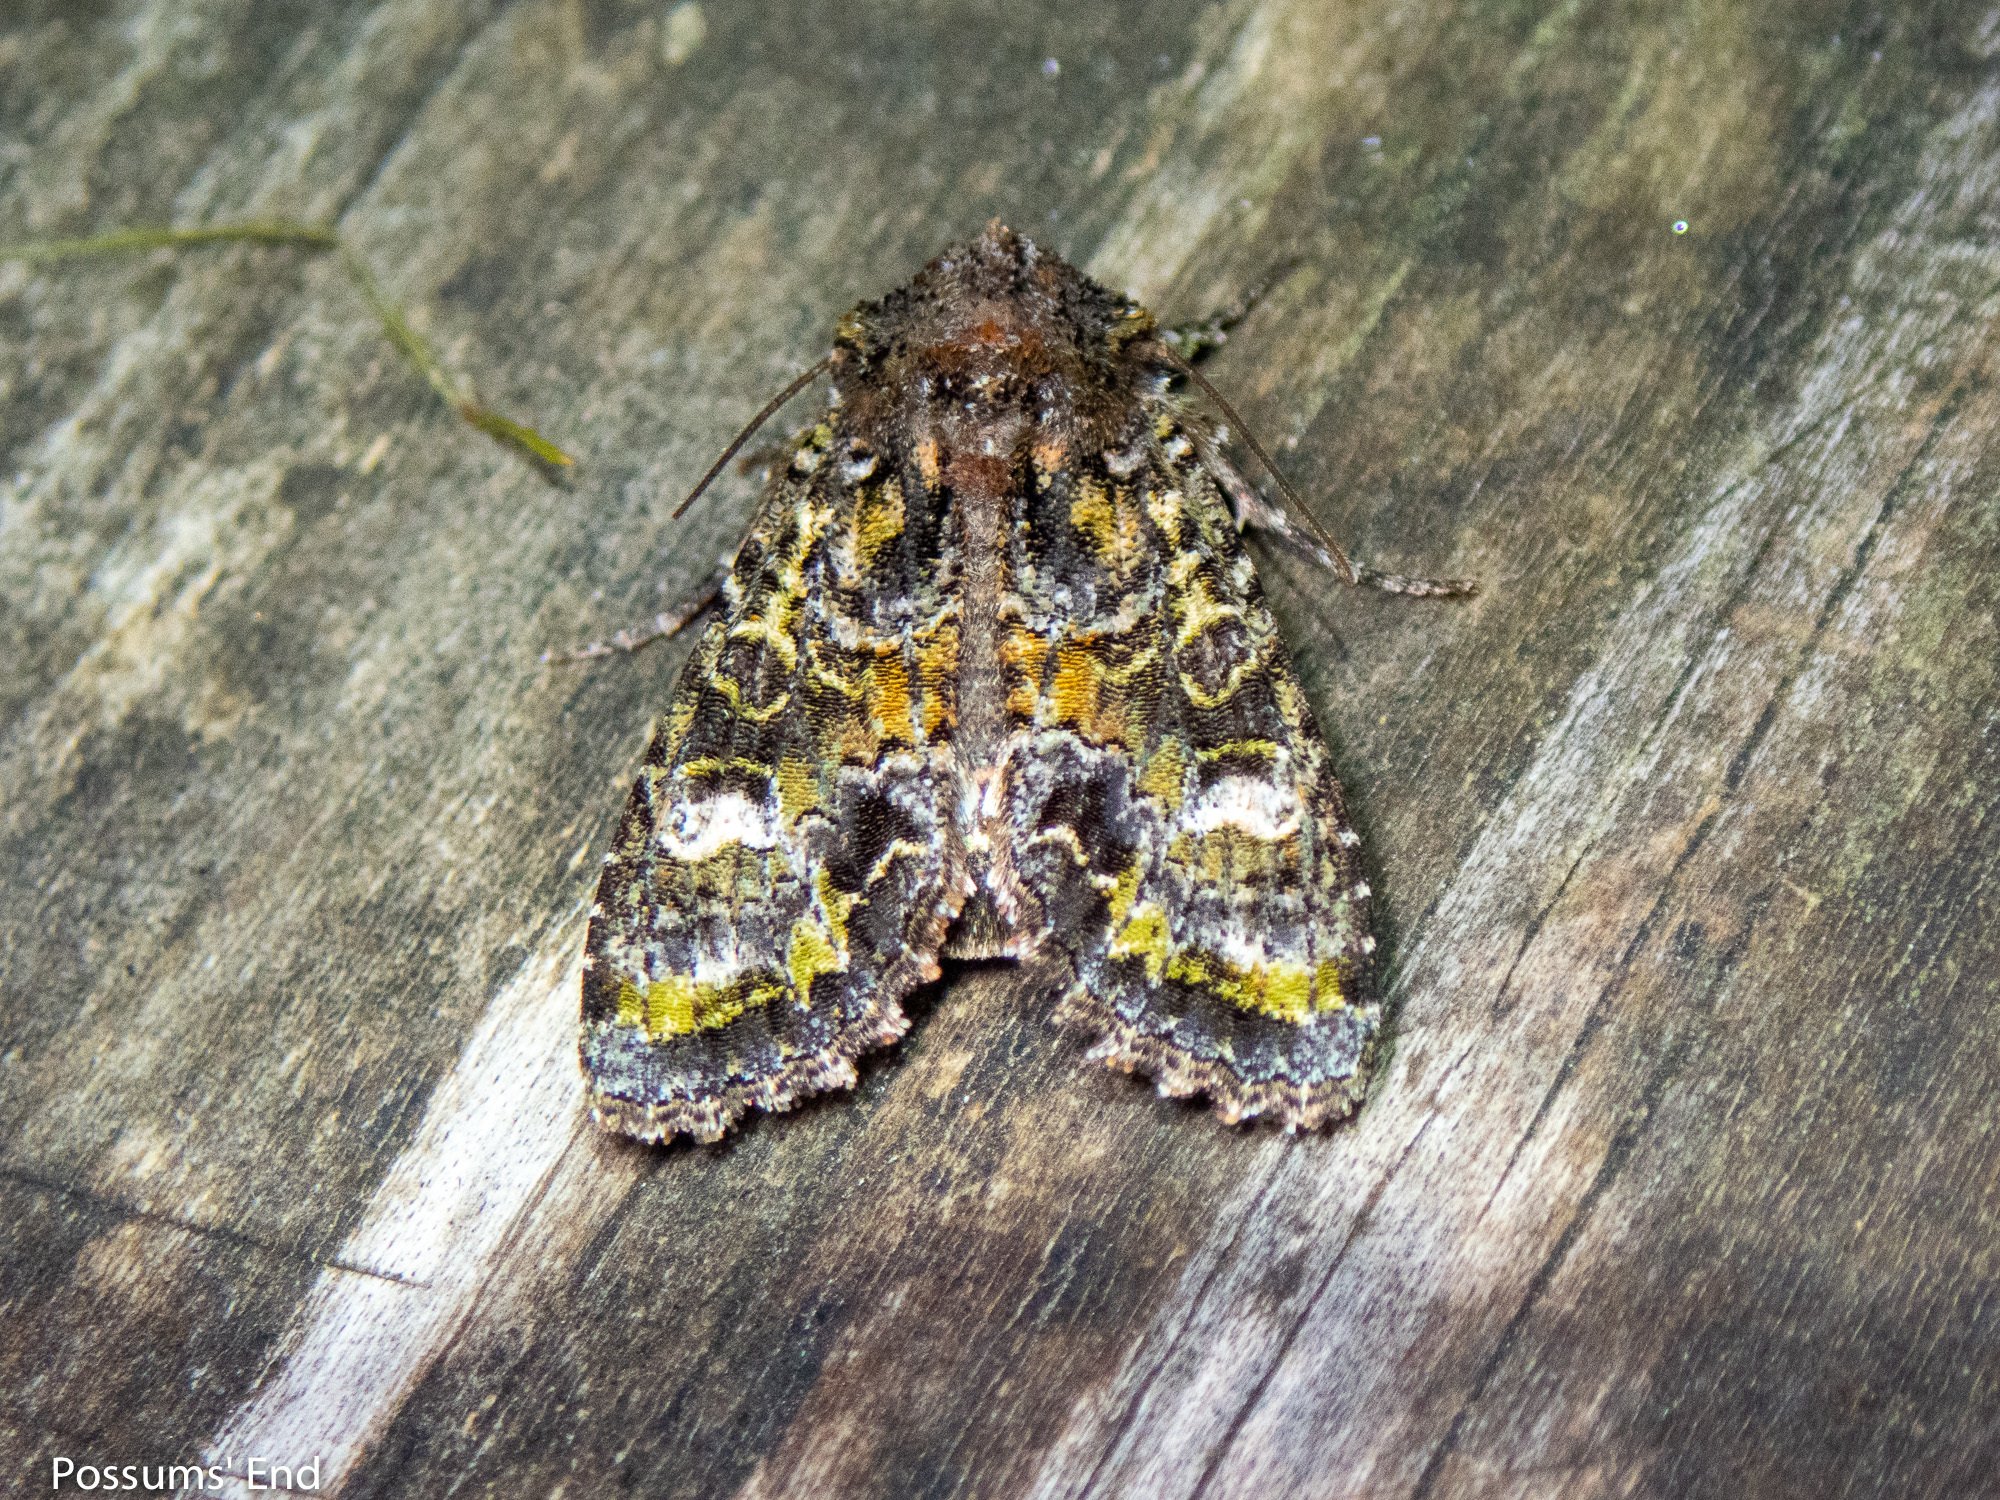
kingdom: Animalia
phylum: Arthropoda
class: Insecta
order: Lepidoptera
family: Noctuidae
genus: Ichneutica
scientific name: Ichneutica
